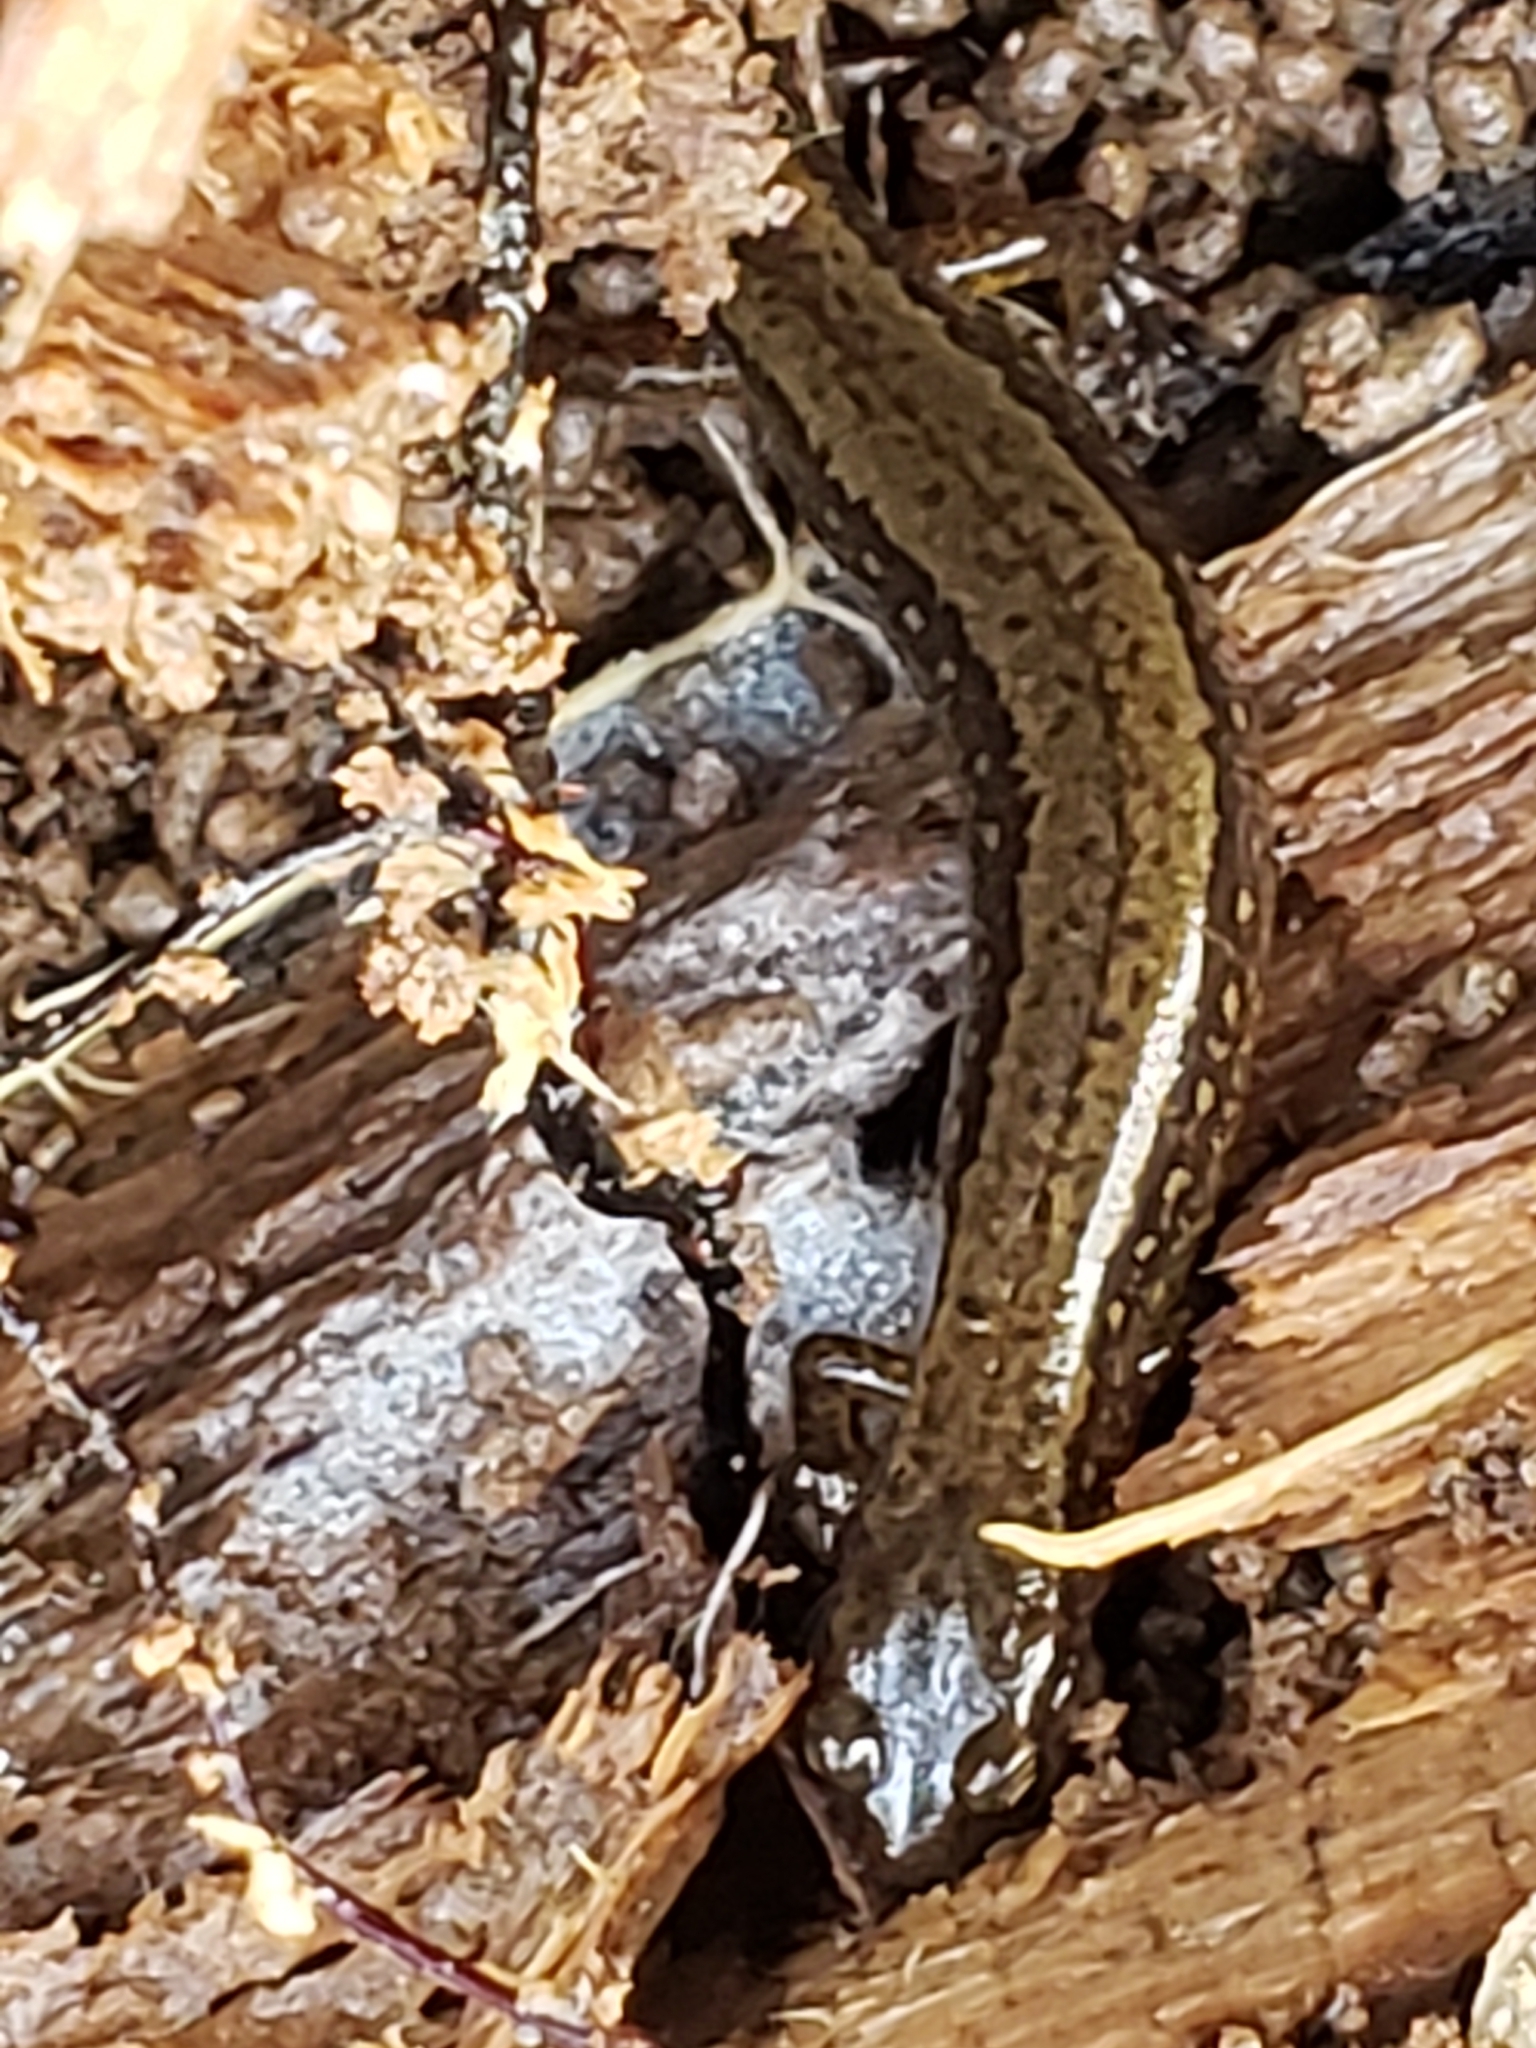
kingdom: Animalia
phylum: Chordata
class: Amphibia
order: Caudata
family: Plethodontidae
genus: Eurycea
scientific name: Eurycea bislineata
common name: Northern two-lined salamander
